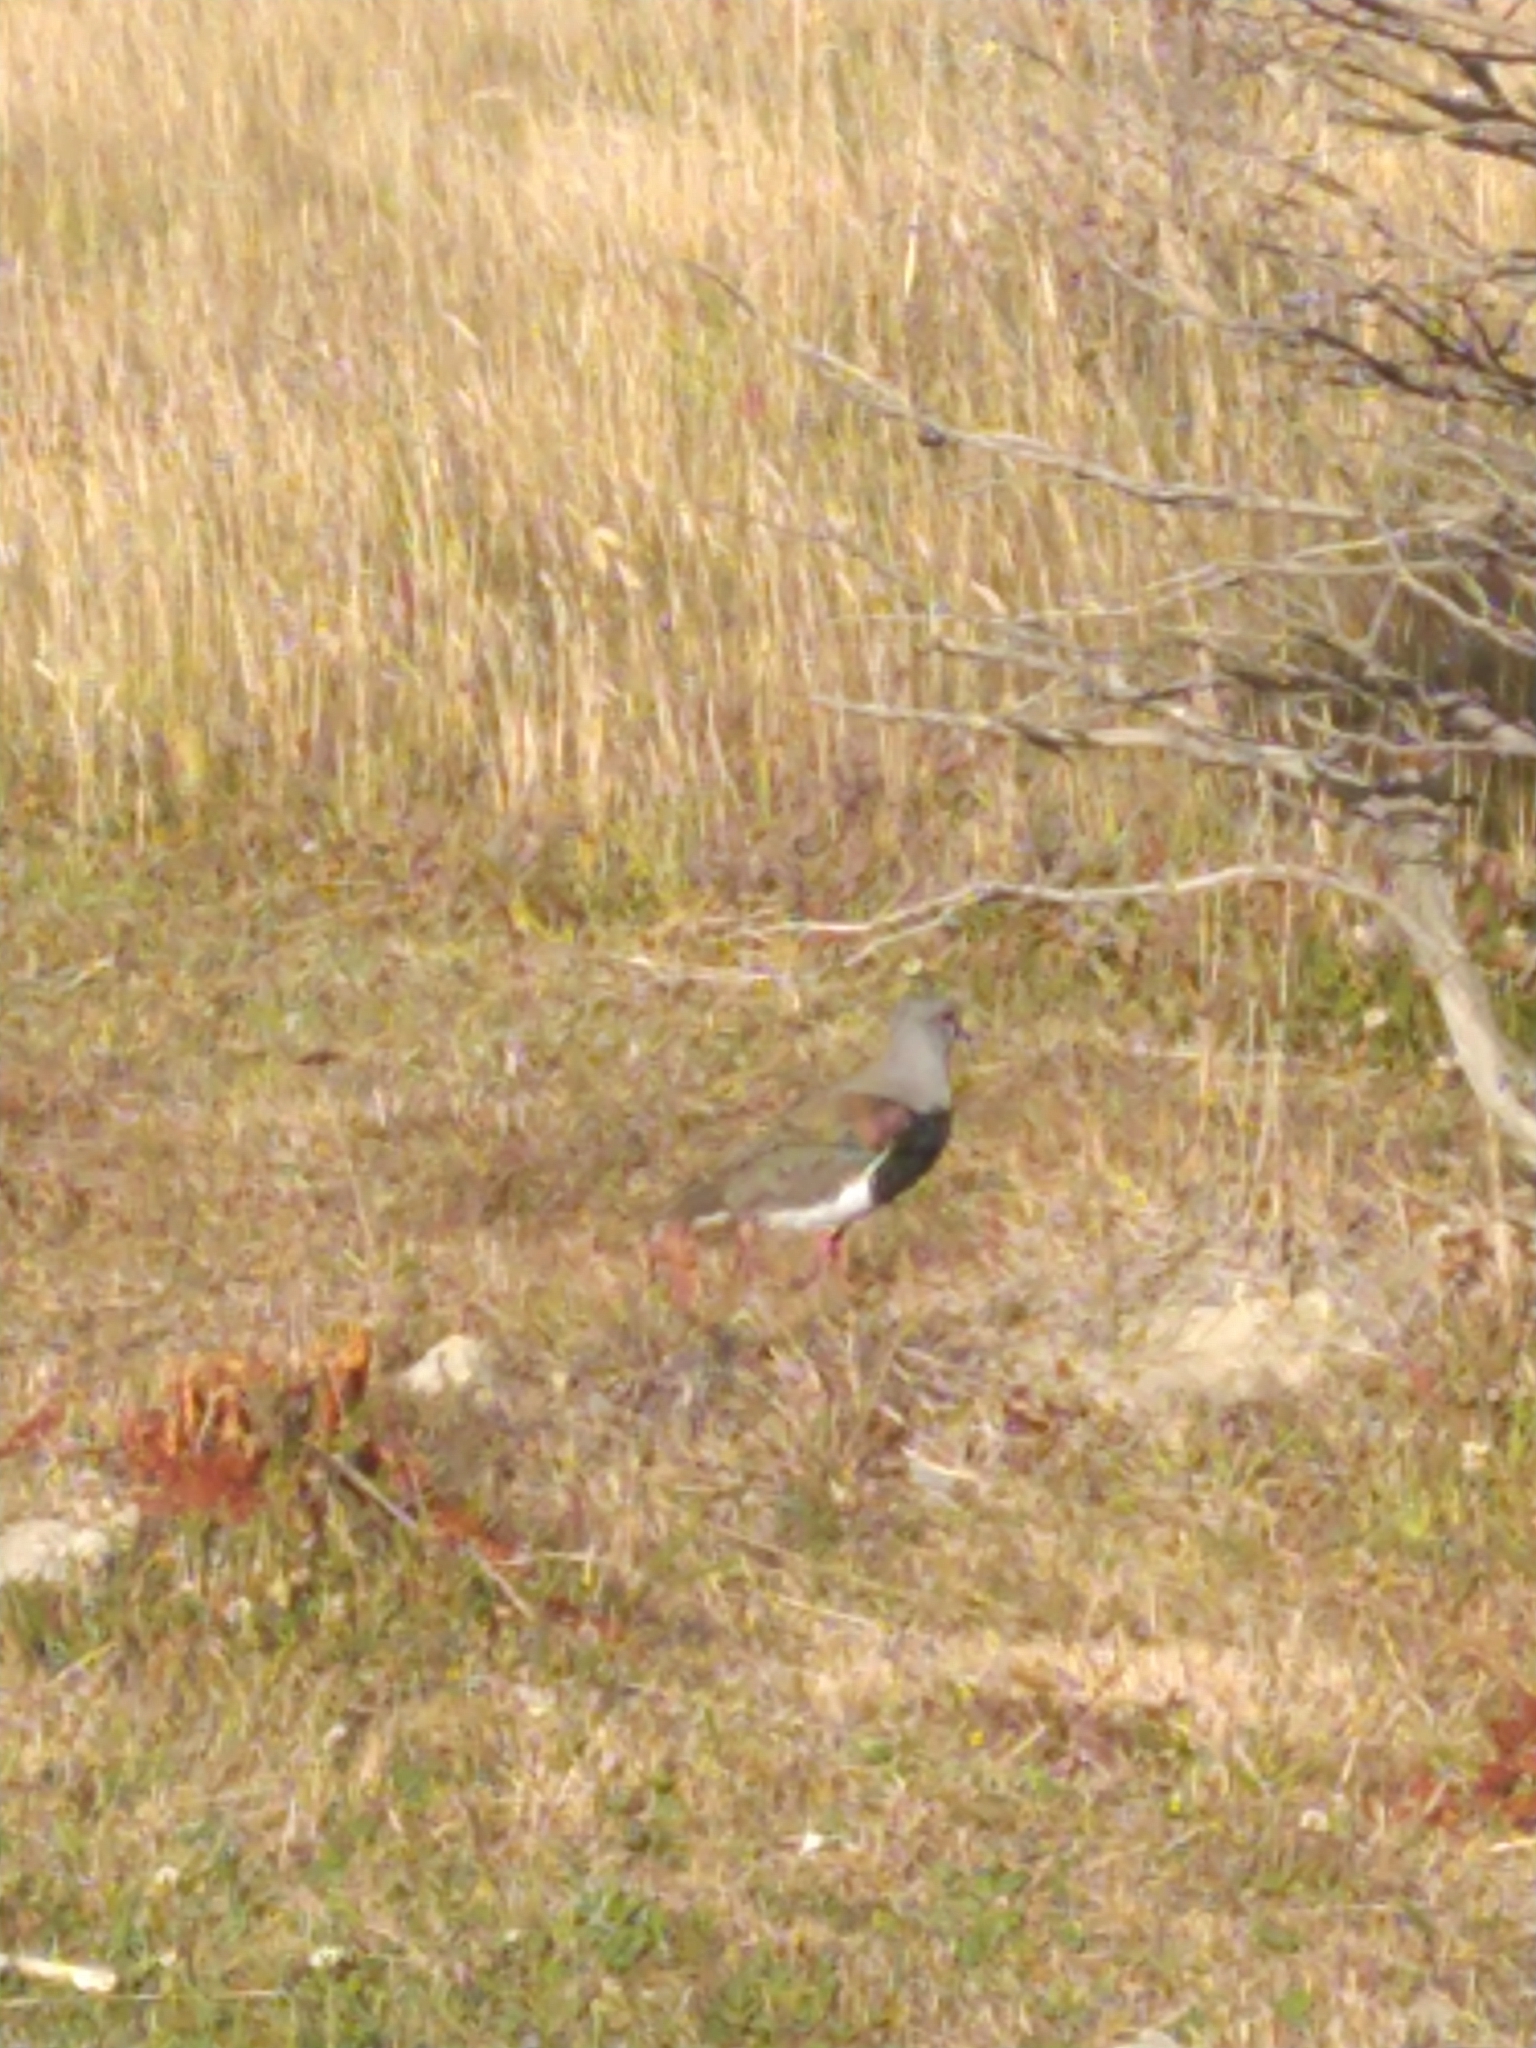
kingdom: Animalia
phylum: Chordata
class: Aves
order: Charadriiformes
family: Charadriidae
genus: Vanellus
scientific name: Vanellus chilensis
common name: Southern lapwing
